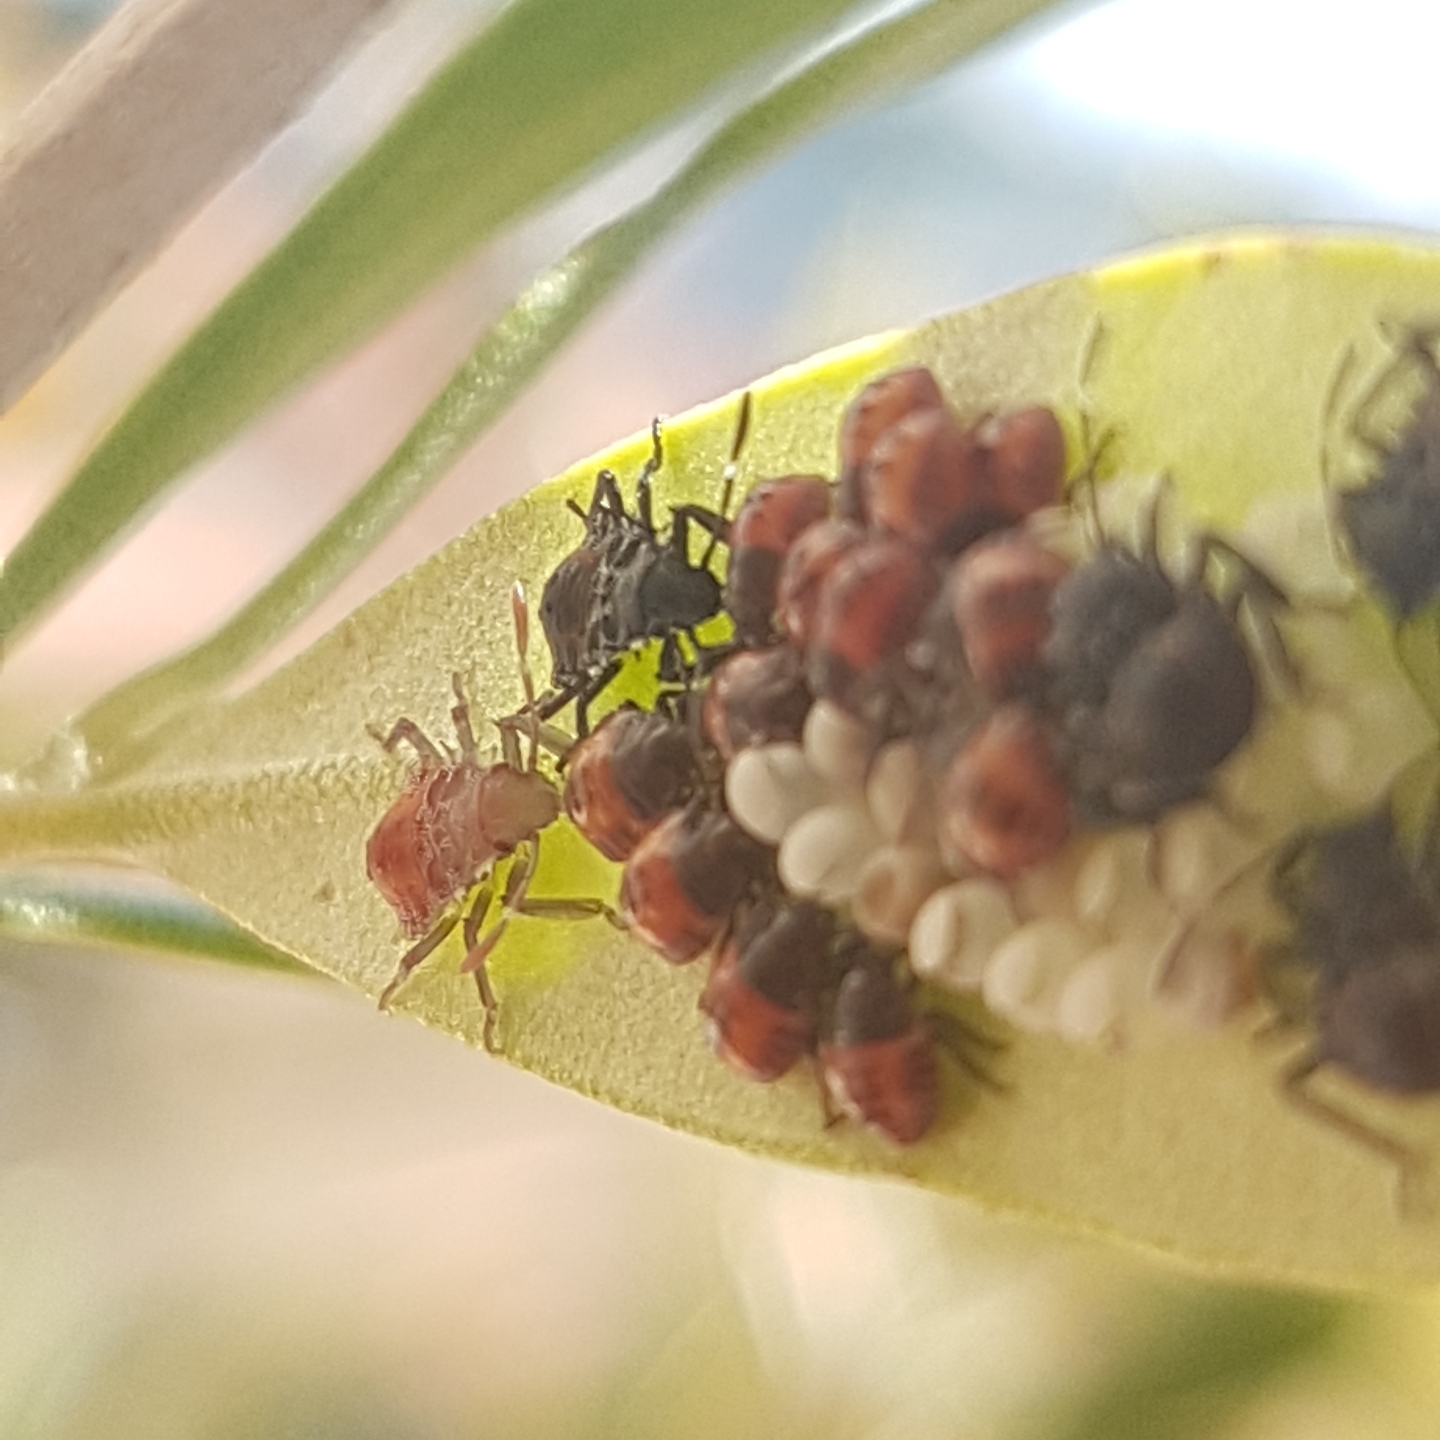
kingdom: Animalia
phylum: Arthropoda
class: Insecta
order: Hemiptera
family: Pentatomidae
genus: Halyomorpha
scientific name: Halyomorpha halys
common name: Brown marmorated stink bug
